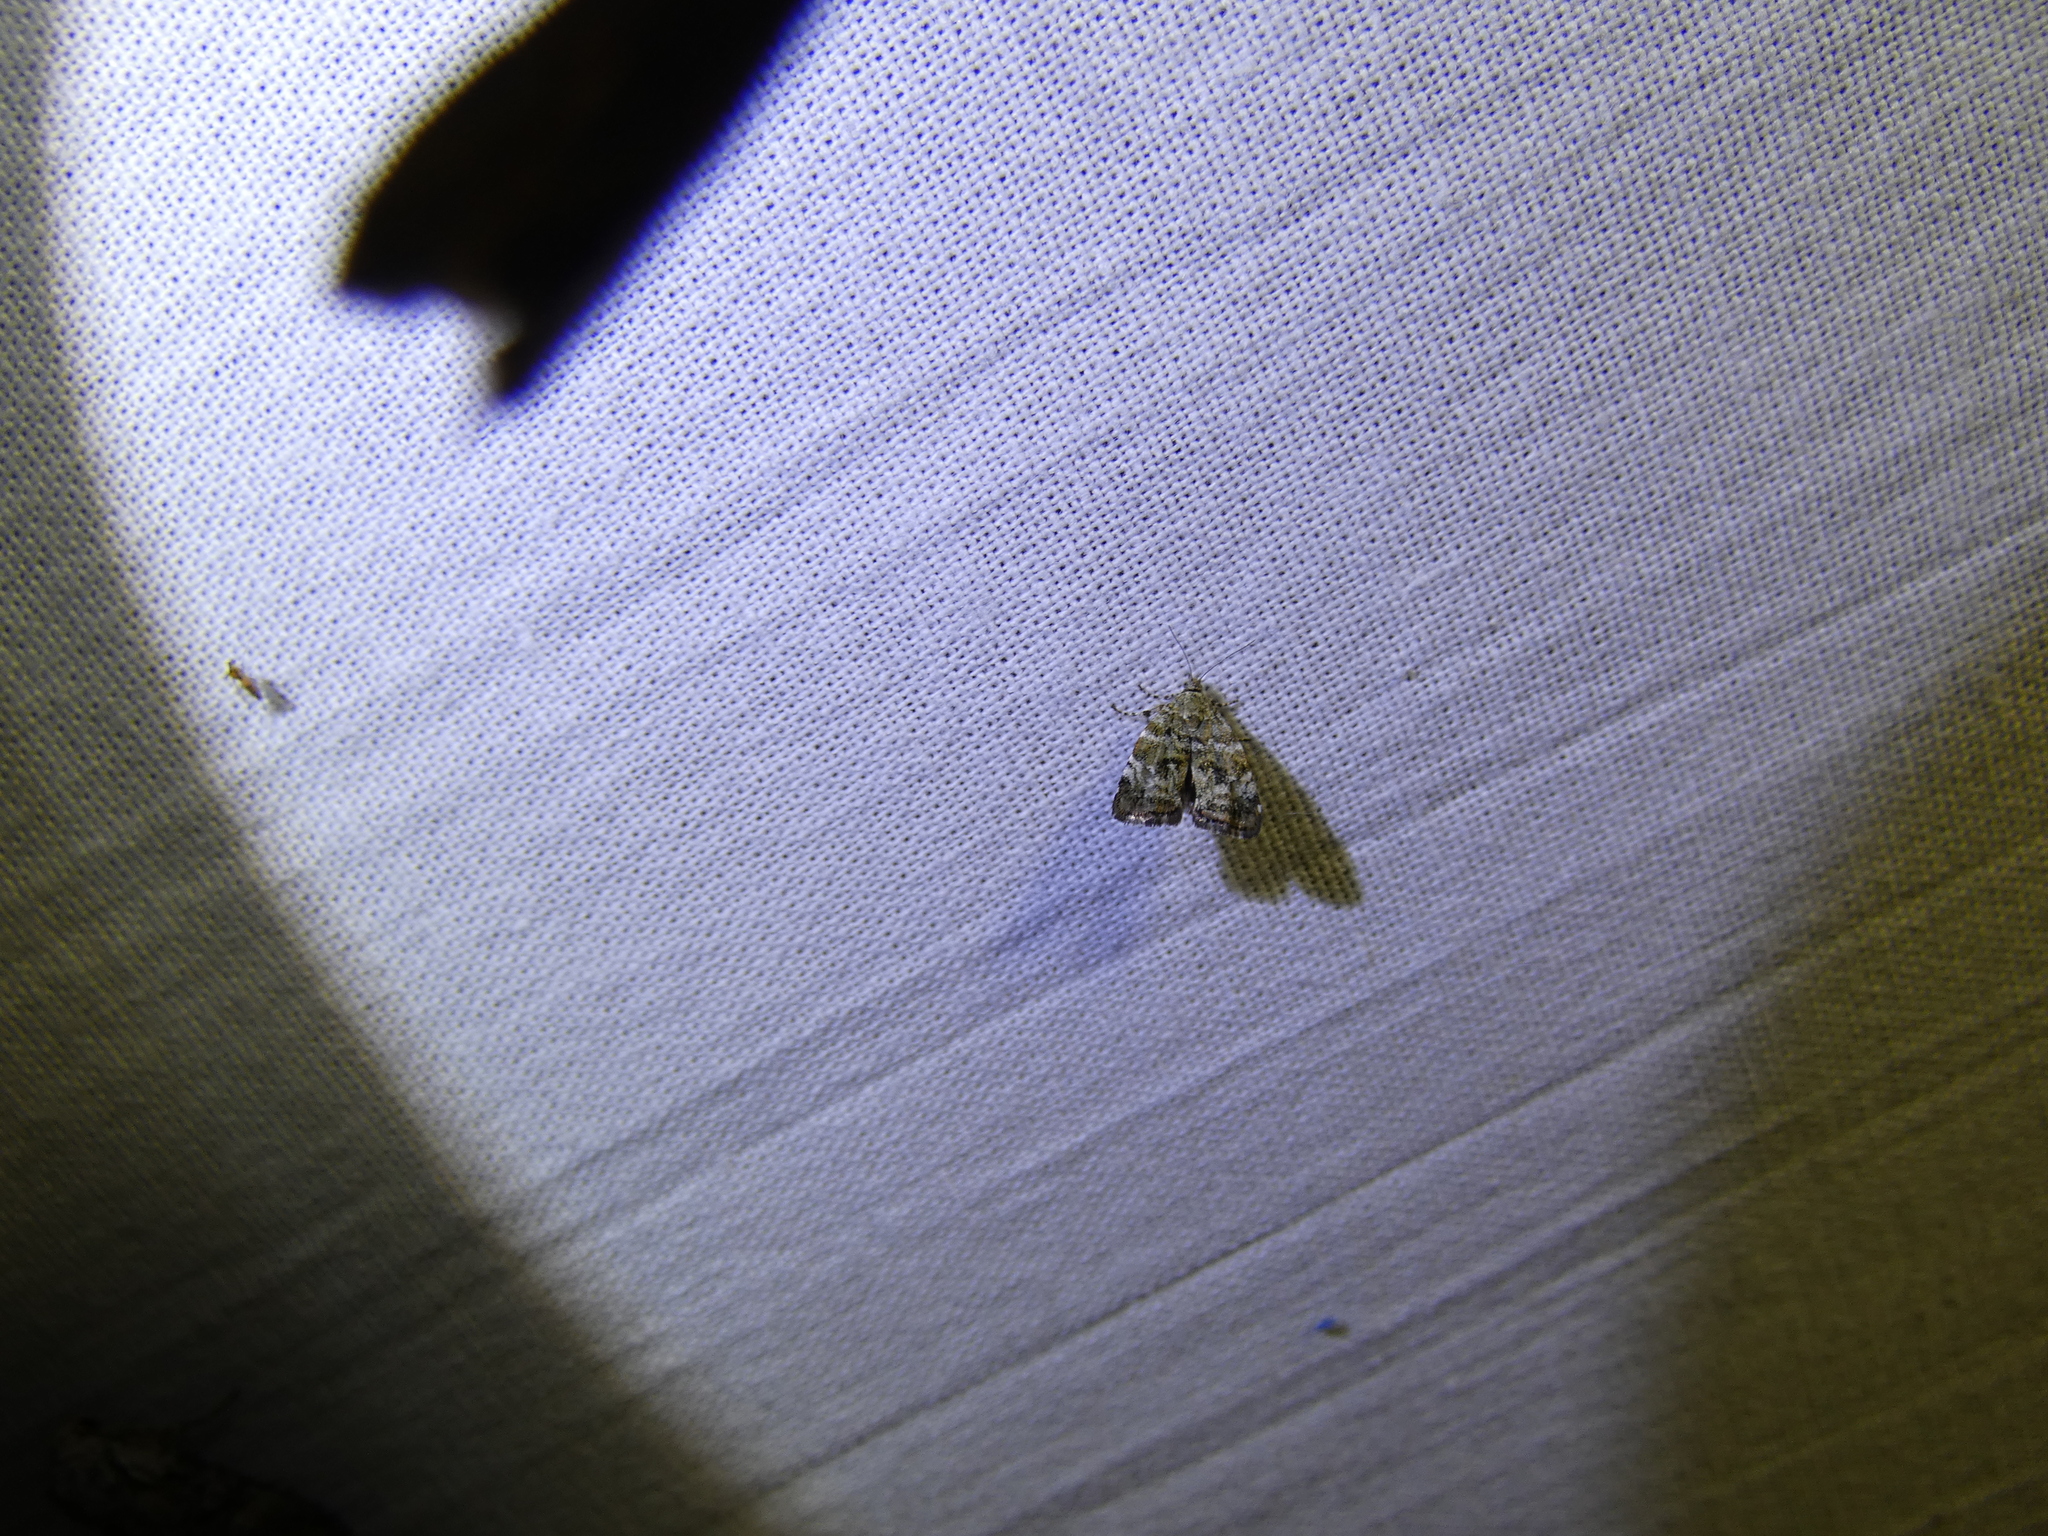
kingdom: Animalia
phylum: Arthropoda
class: Insecta
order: Lepidoptera
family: Choreutidae
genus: Choreutis
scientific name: Choreutis diana
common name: Inverness twitcher
